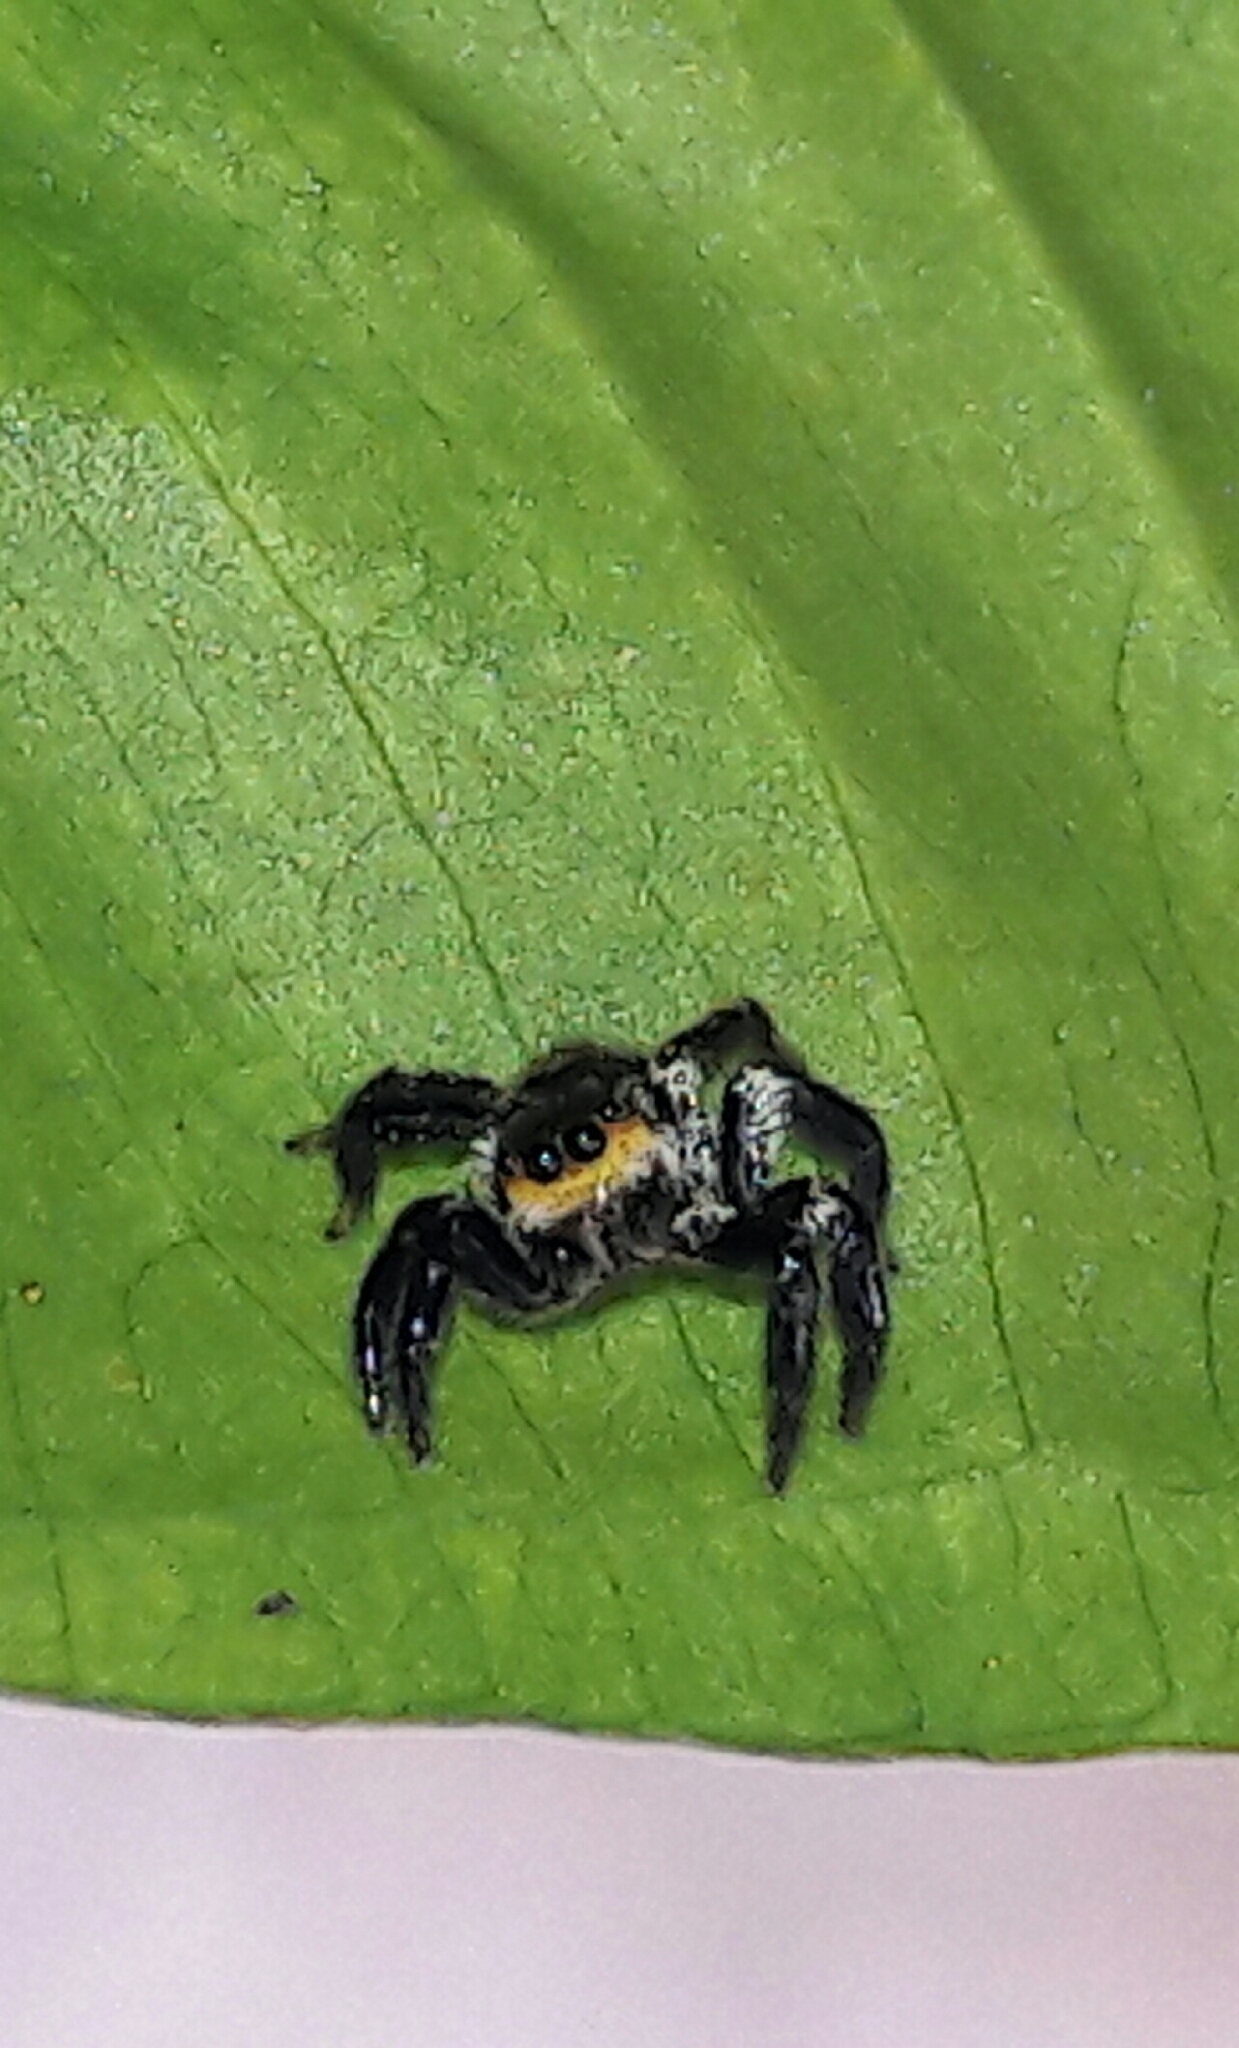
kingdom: Animalia
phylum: Arthropoda
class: Arachnida
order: Araneae
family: Salticidae
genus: Corythalia
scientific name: Corythalia conferta
